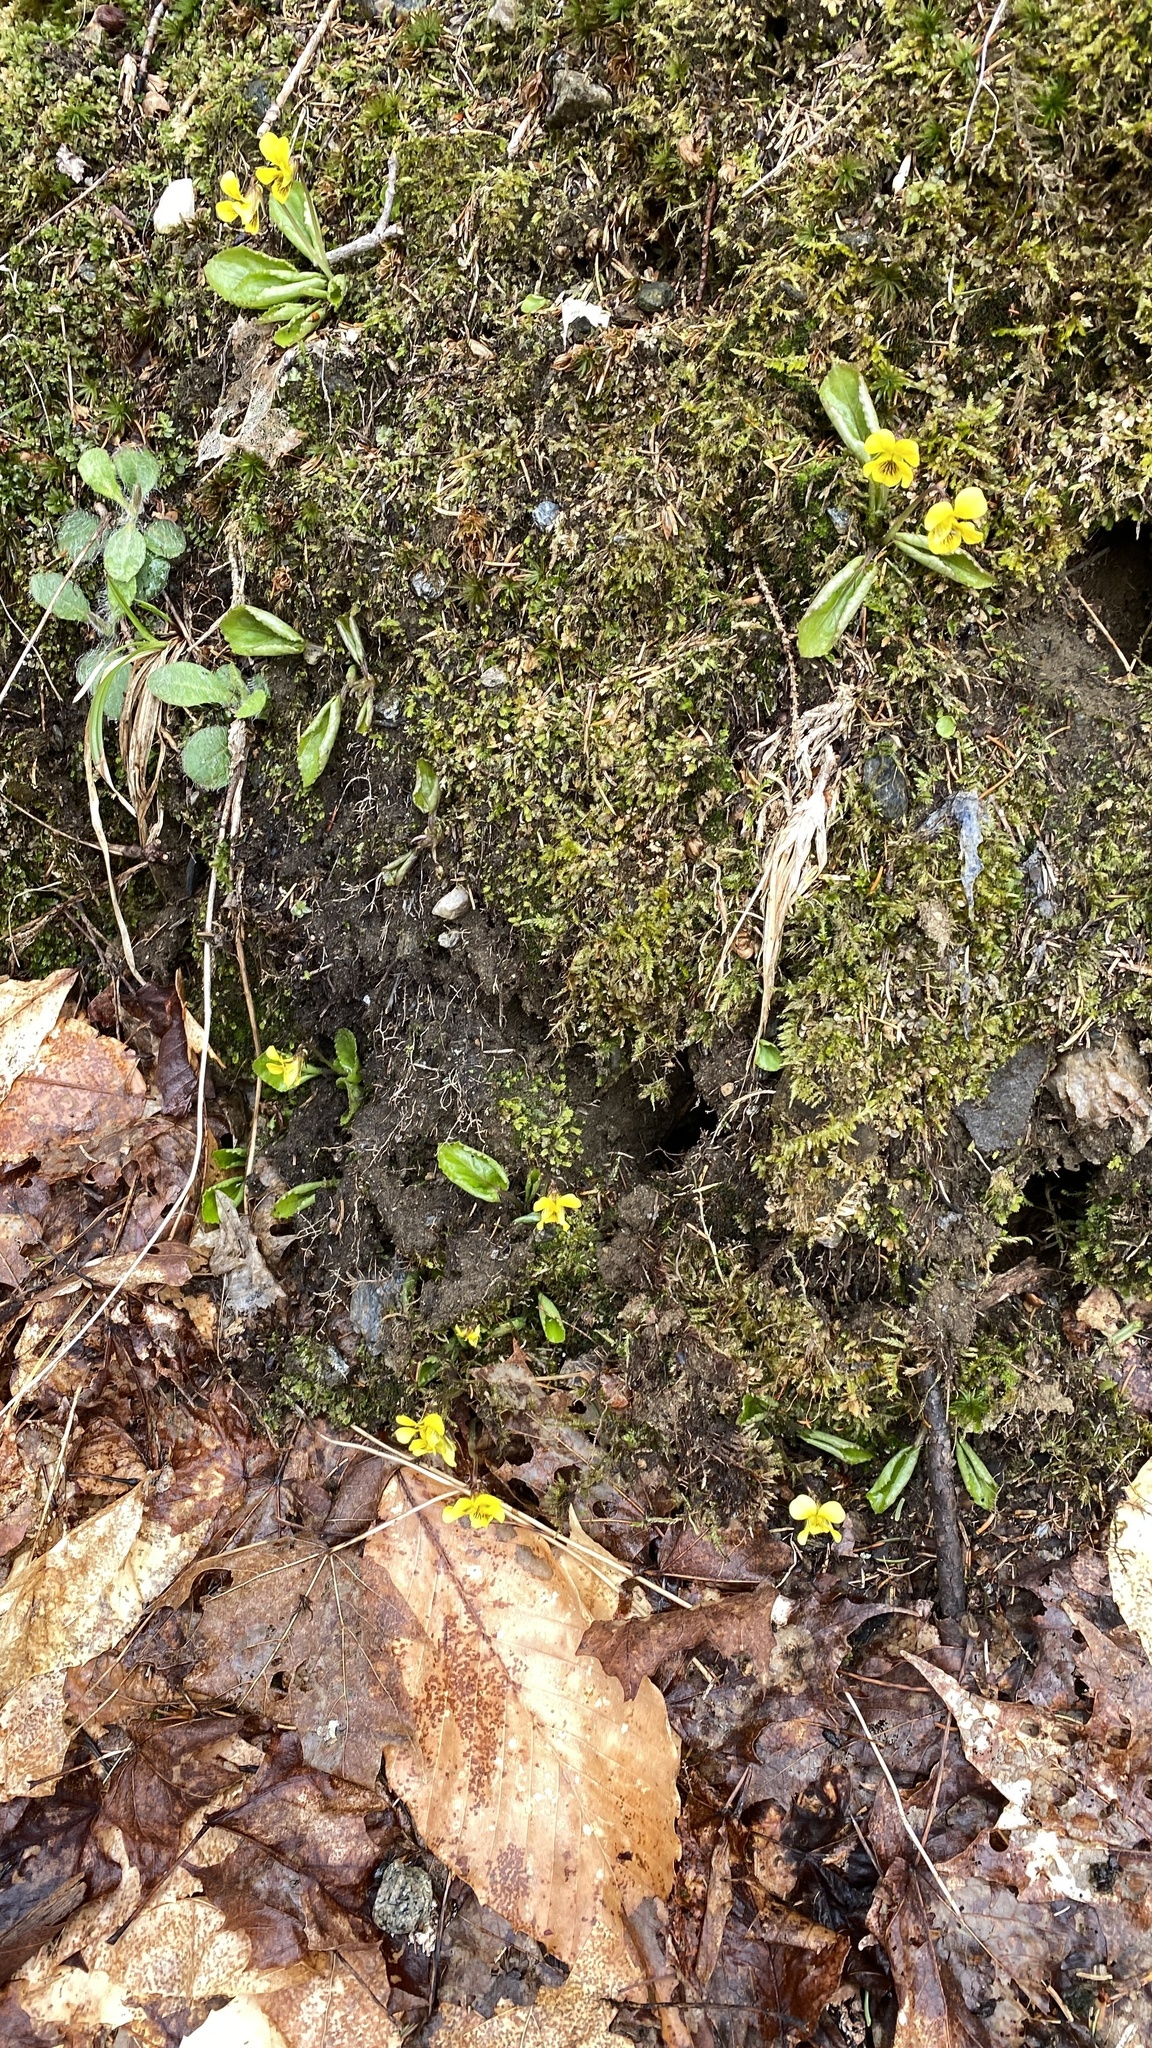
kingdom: Plantae
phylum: Tracheophyta
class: Magnoliopsida
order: Malpighiales
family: Violaceae
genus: Viola
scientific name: Viola rotundifolia
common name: Early yellow violet
